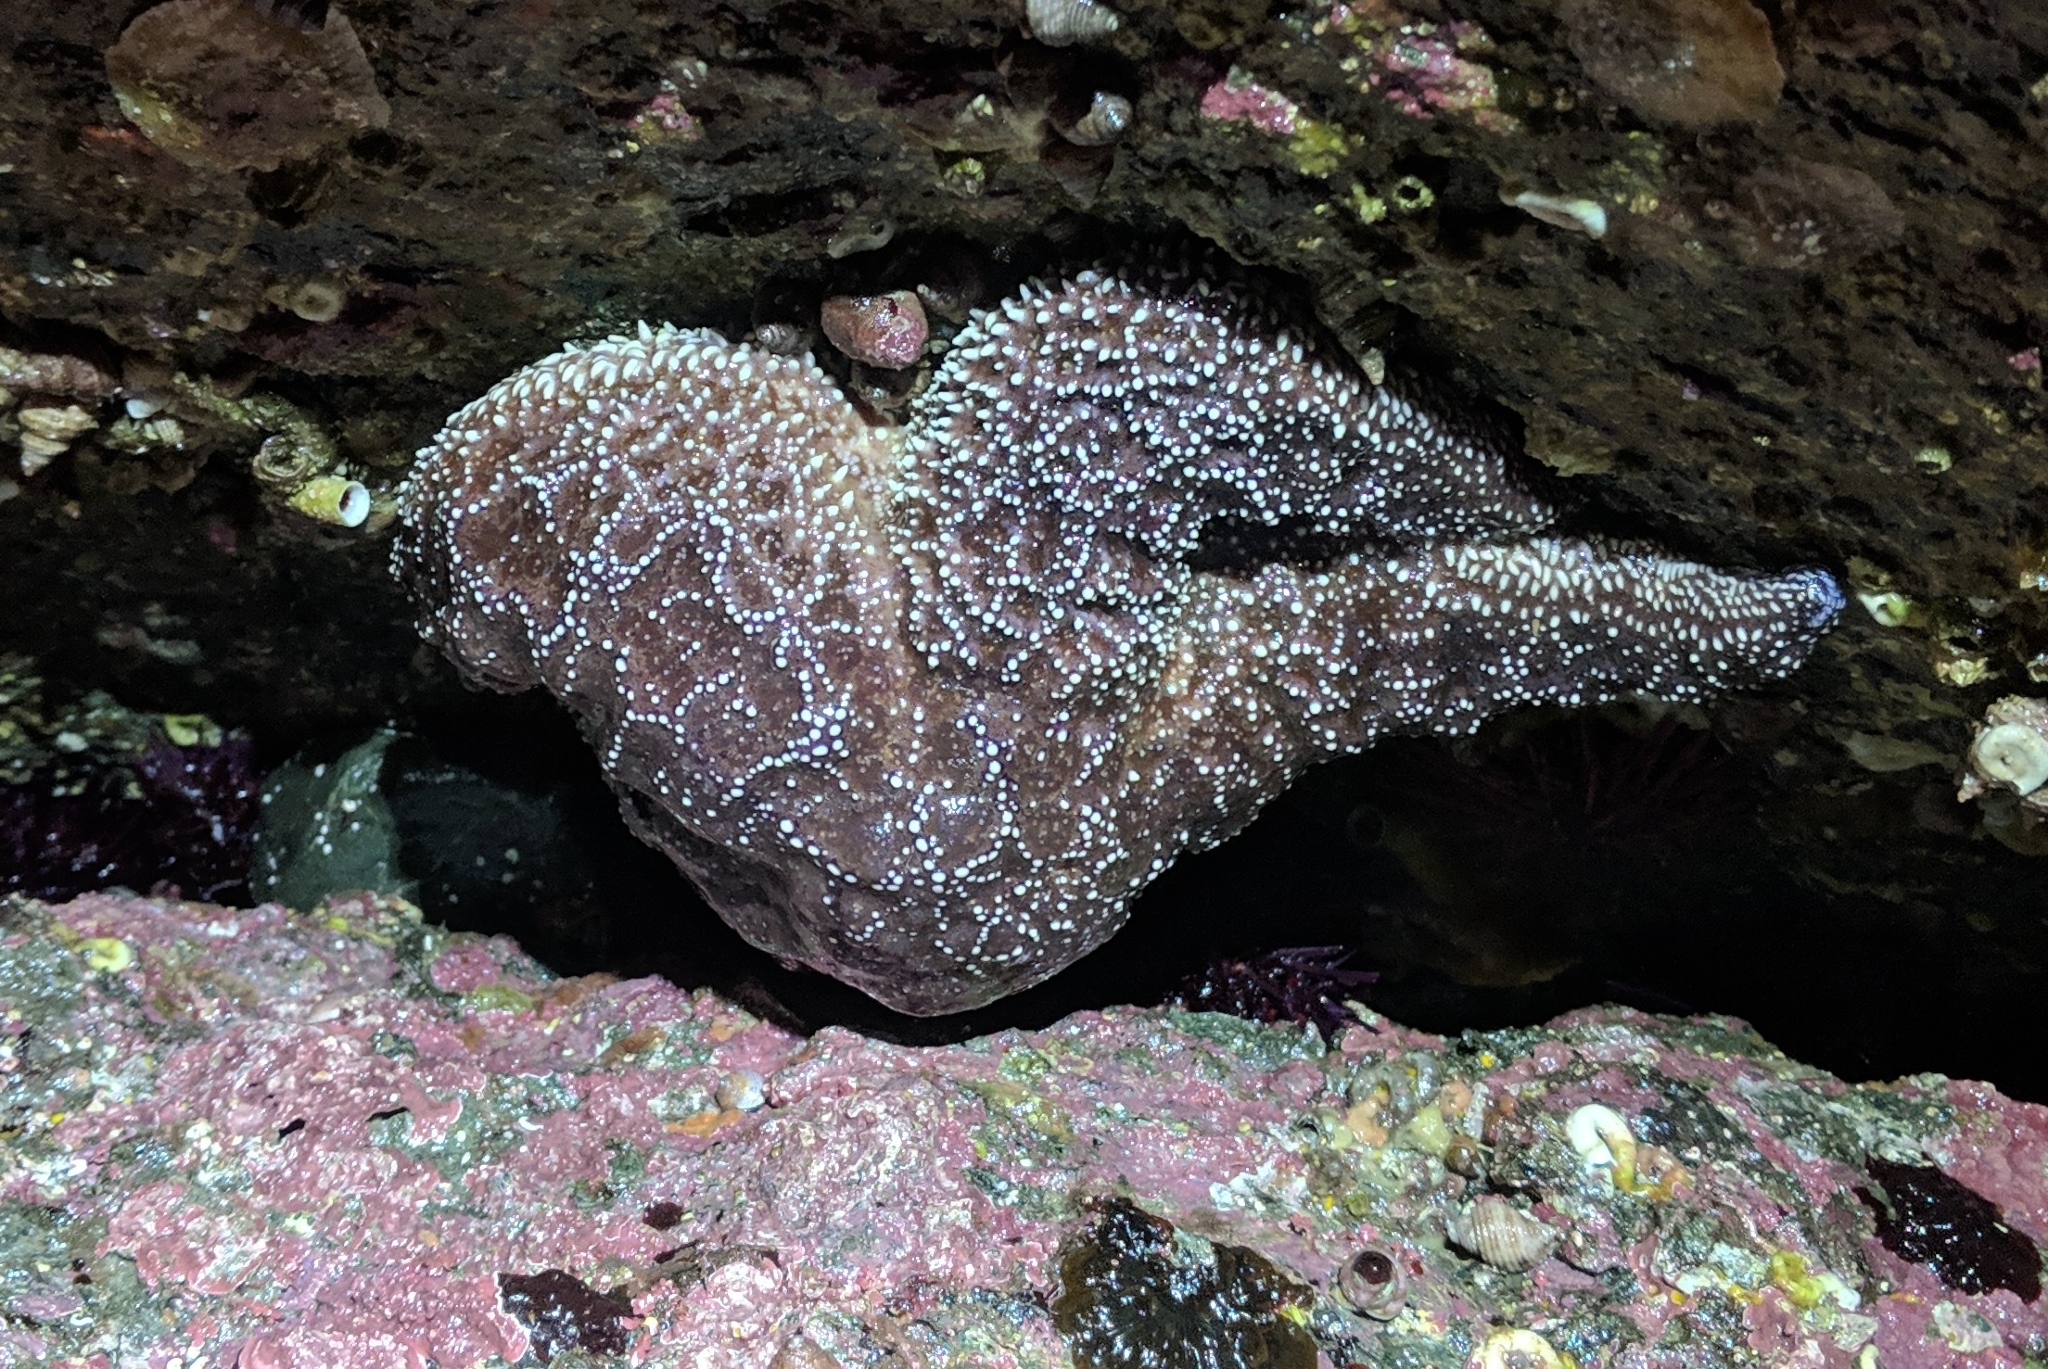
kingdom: Animalia
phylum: Echinodermata
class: Asteroidea
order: Forcipulatida
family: Asteriidae
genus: Pisaster
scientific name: Pisaster ochraceus
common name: Ochre stars
